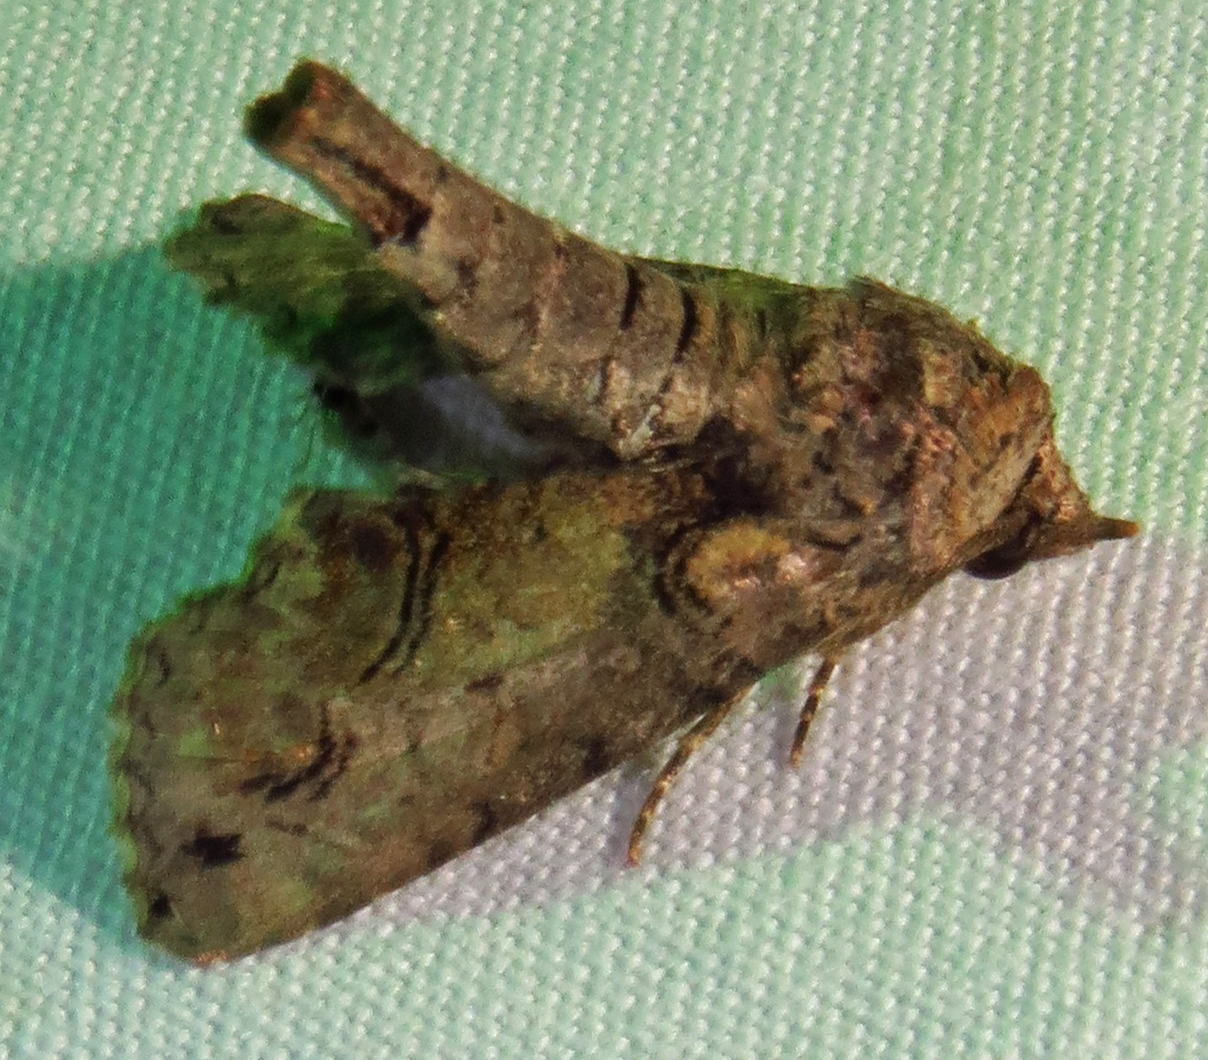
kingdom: Animalia
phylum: Arthropoda
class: Insecta
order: Lepidoptera
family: Euteliidae
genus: Paectes
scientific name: Paectes abrostoloides
